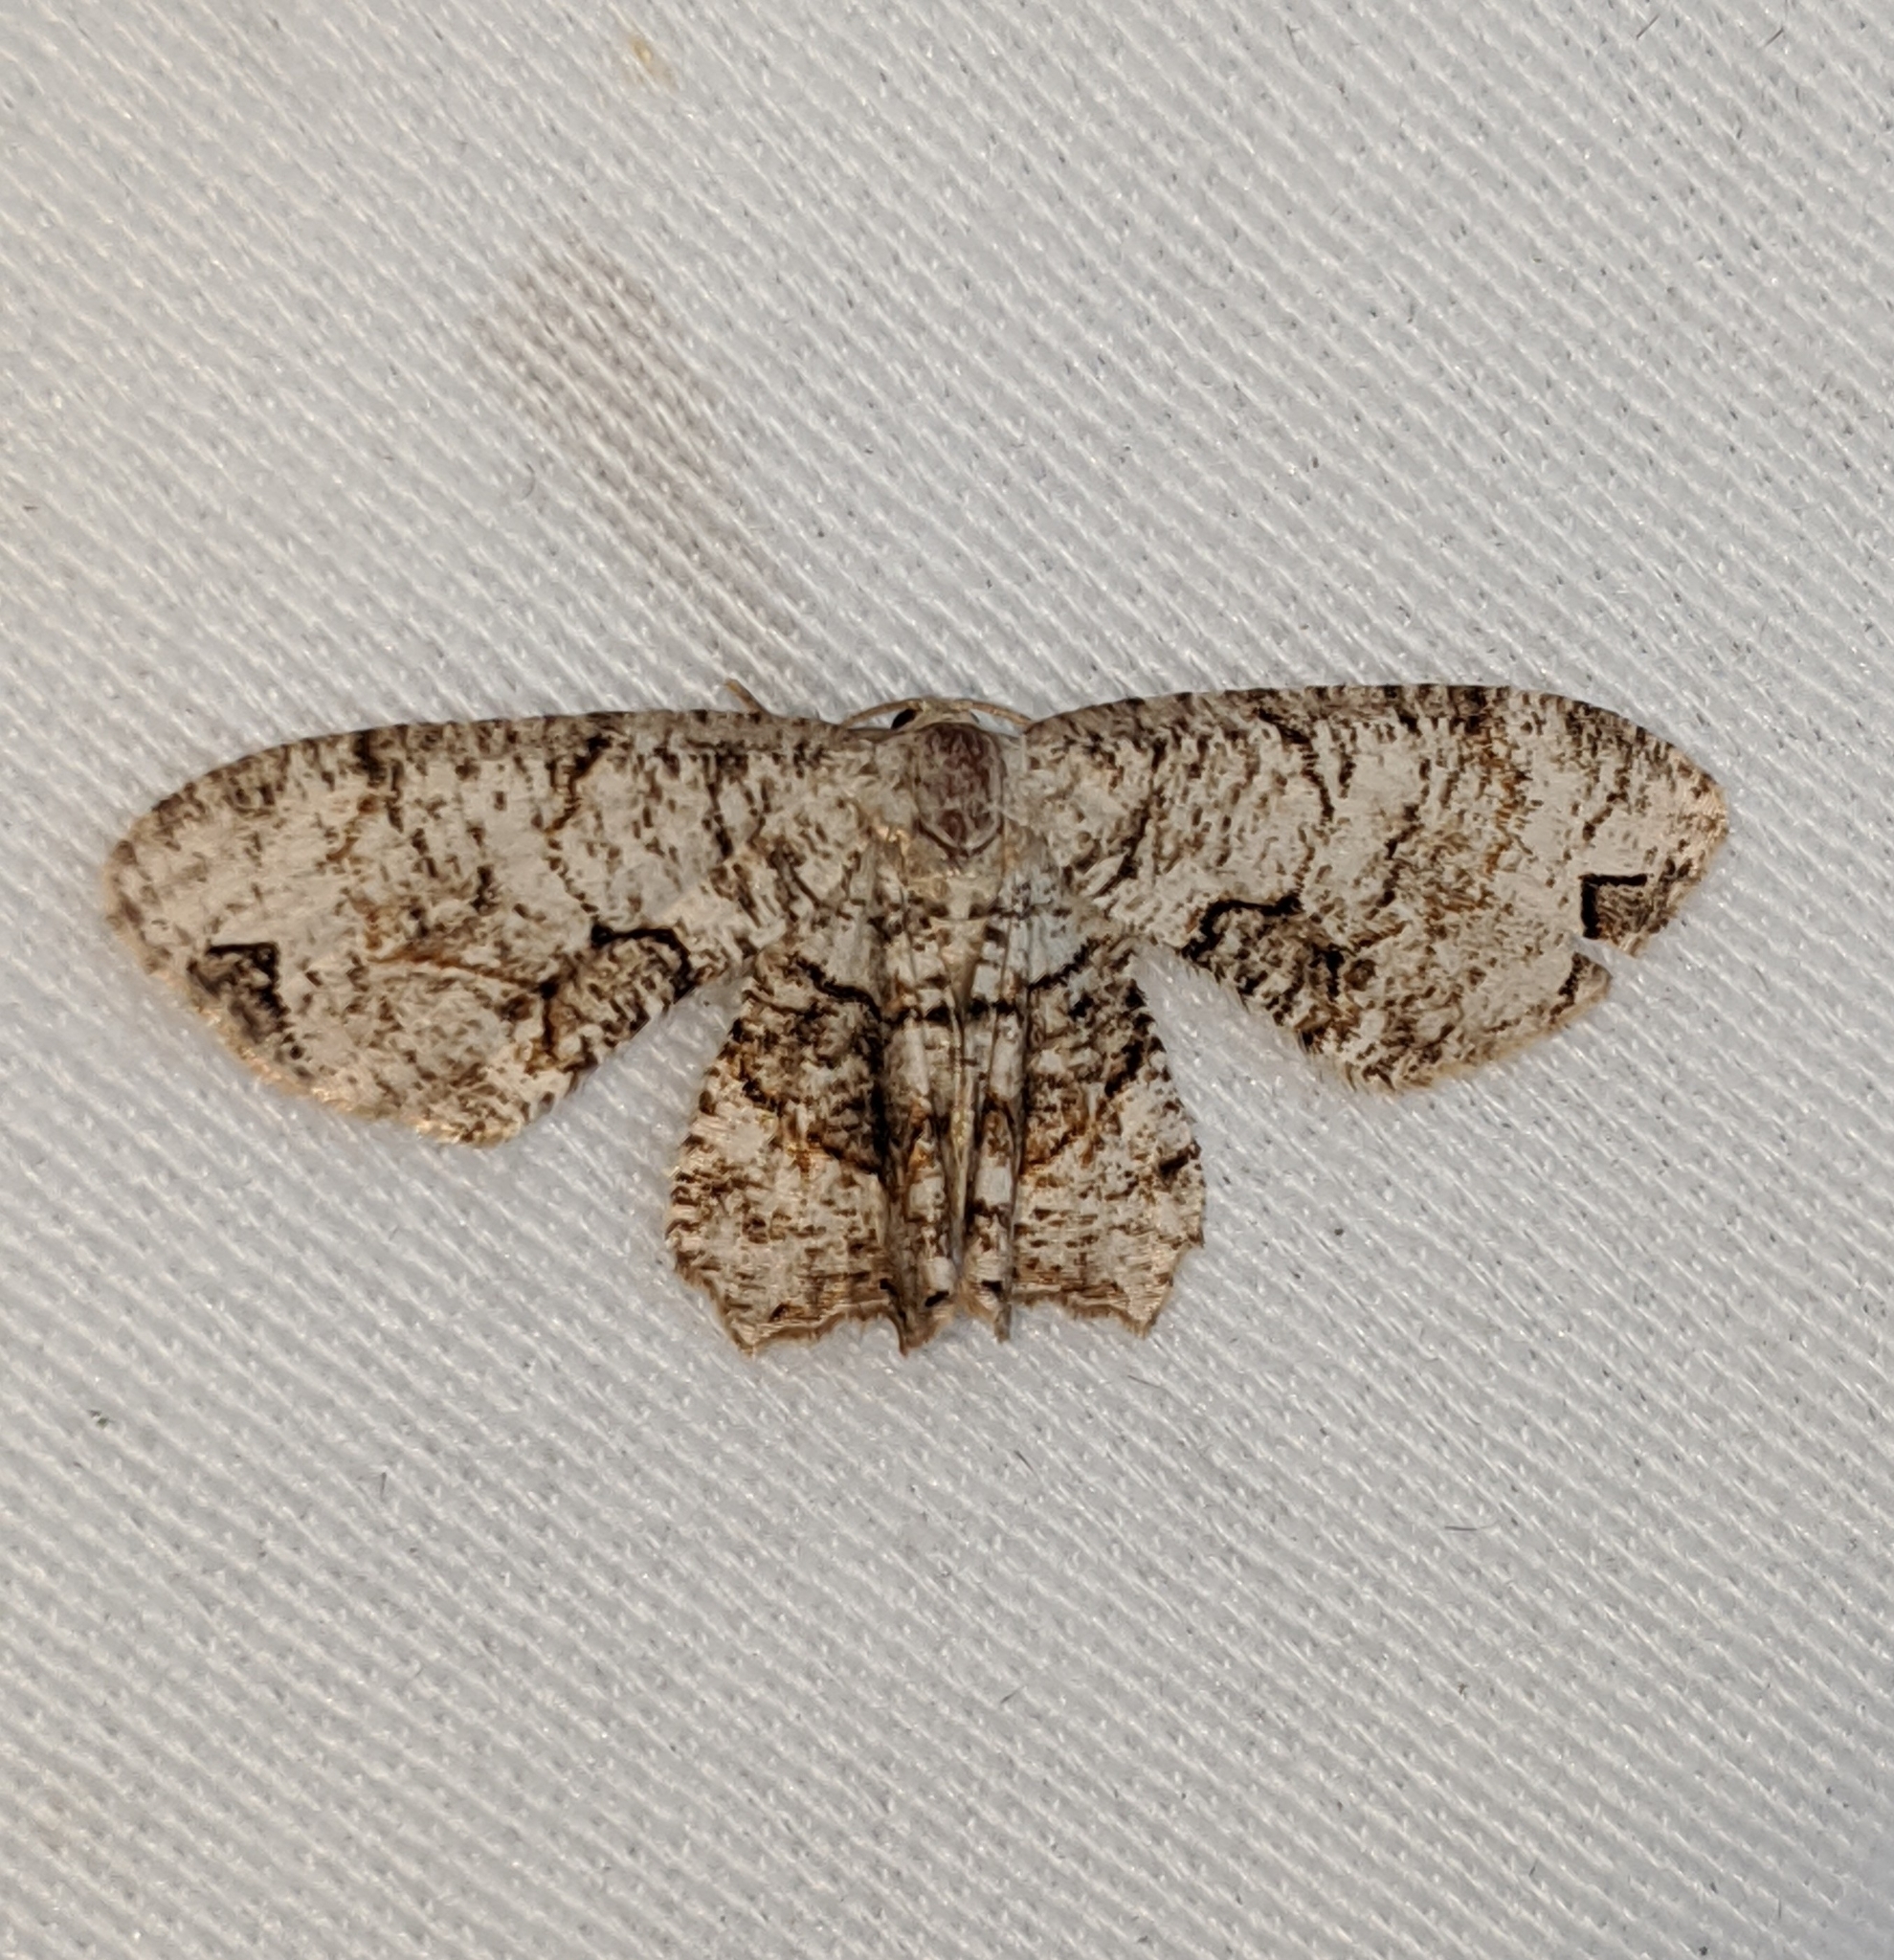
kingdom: Animalia
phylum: Arthropoda
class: Insecta
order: Lepidoptera
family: Uraniidae
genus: Epiplema
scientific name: Epiplema Callizzia amorata
